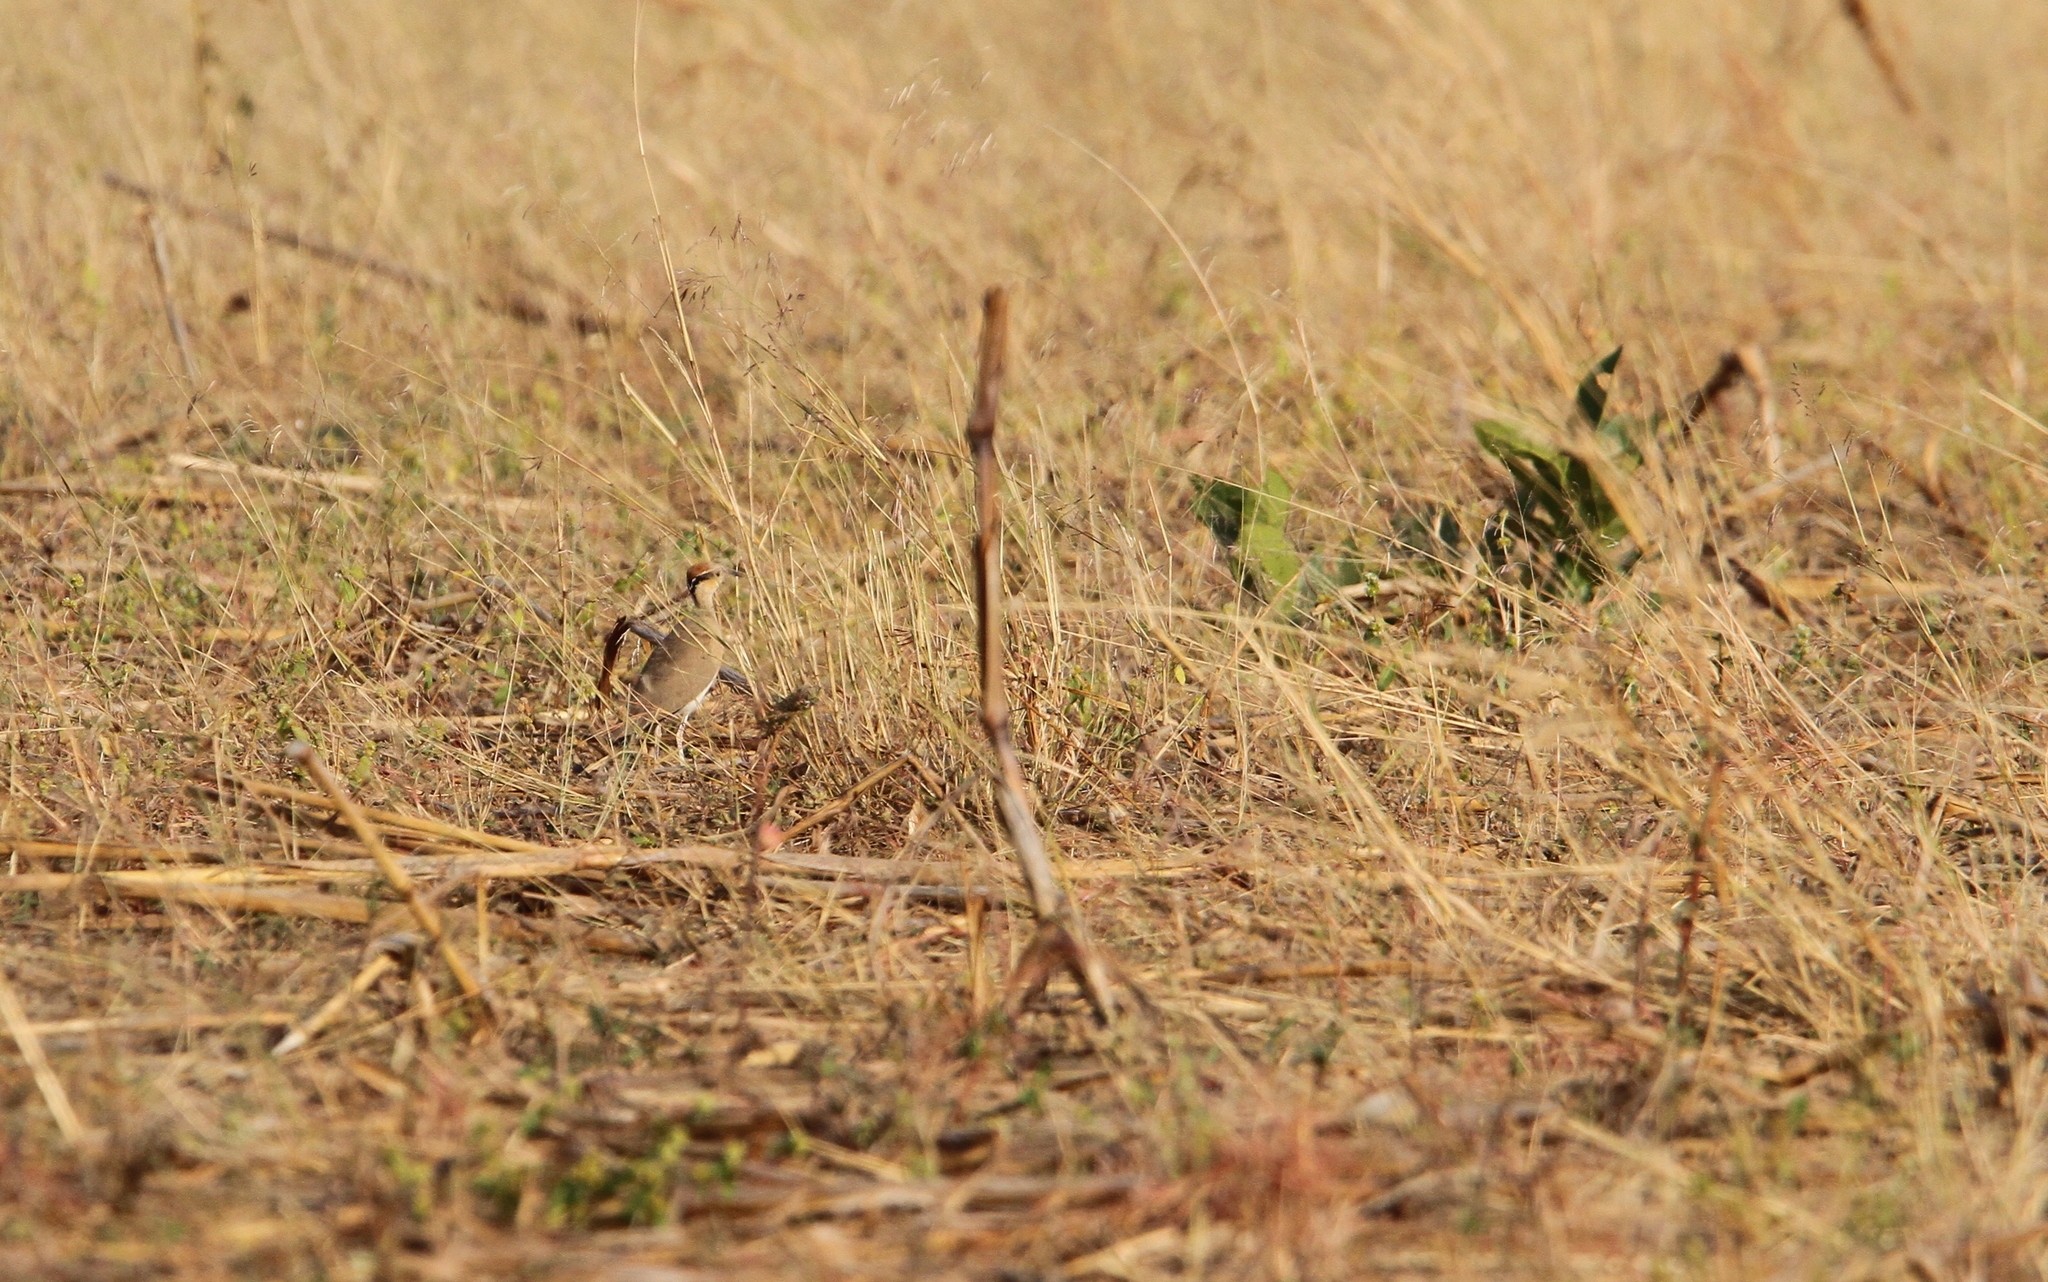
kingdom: Animalia
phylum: Chordata
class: Aves
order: Charadriiformes
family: Glareolidae
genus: Cursorius
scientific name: Cursorius temminckii
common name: Temminck's courser
